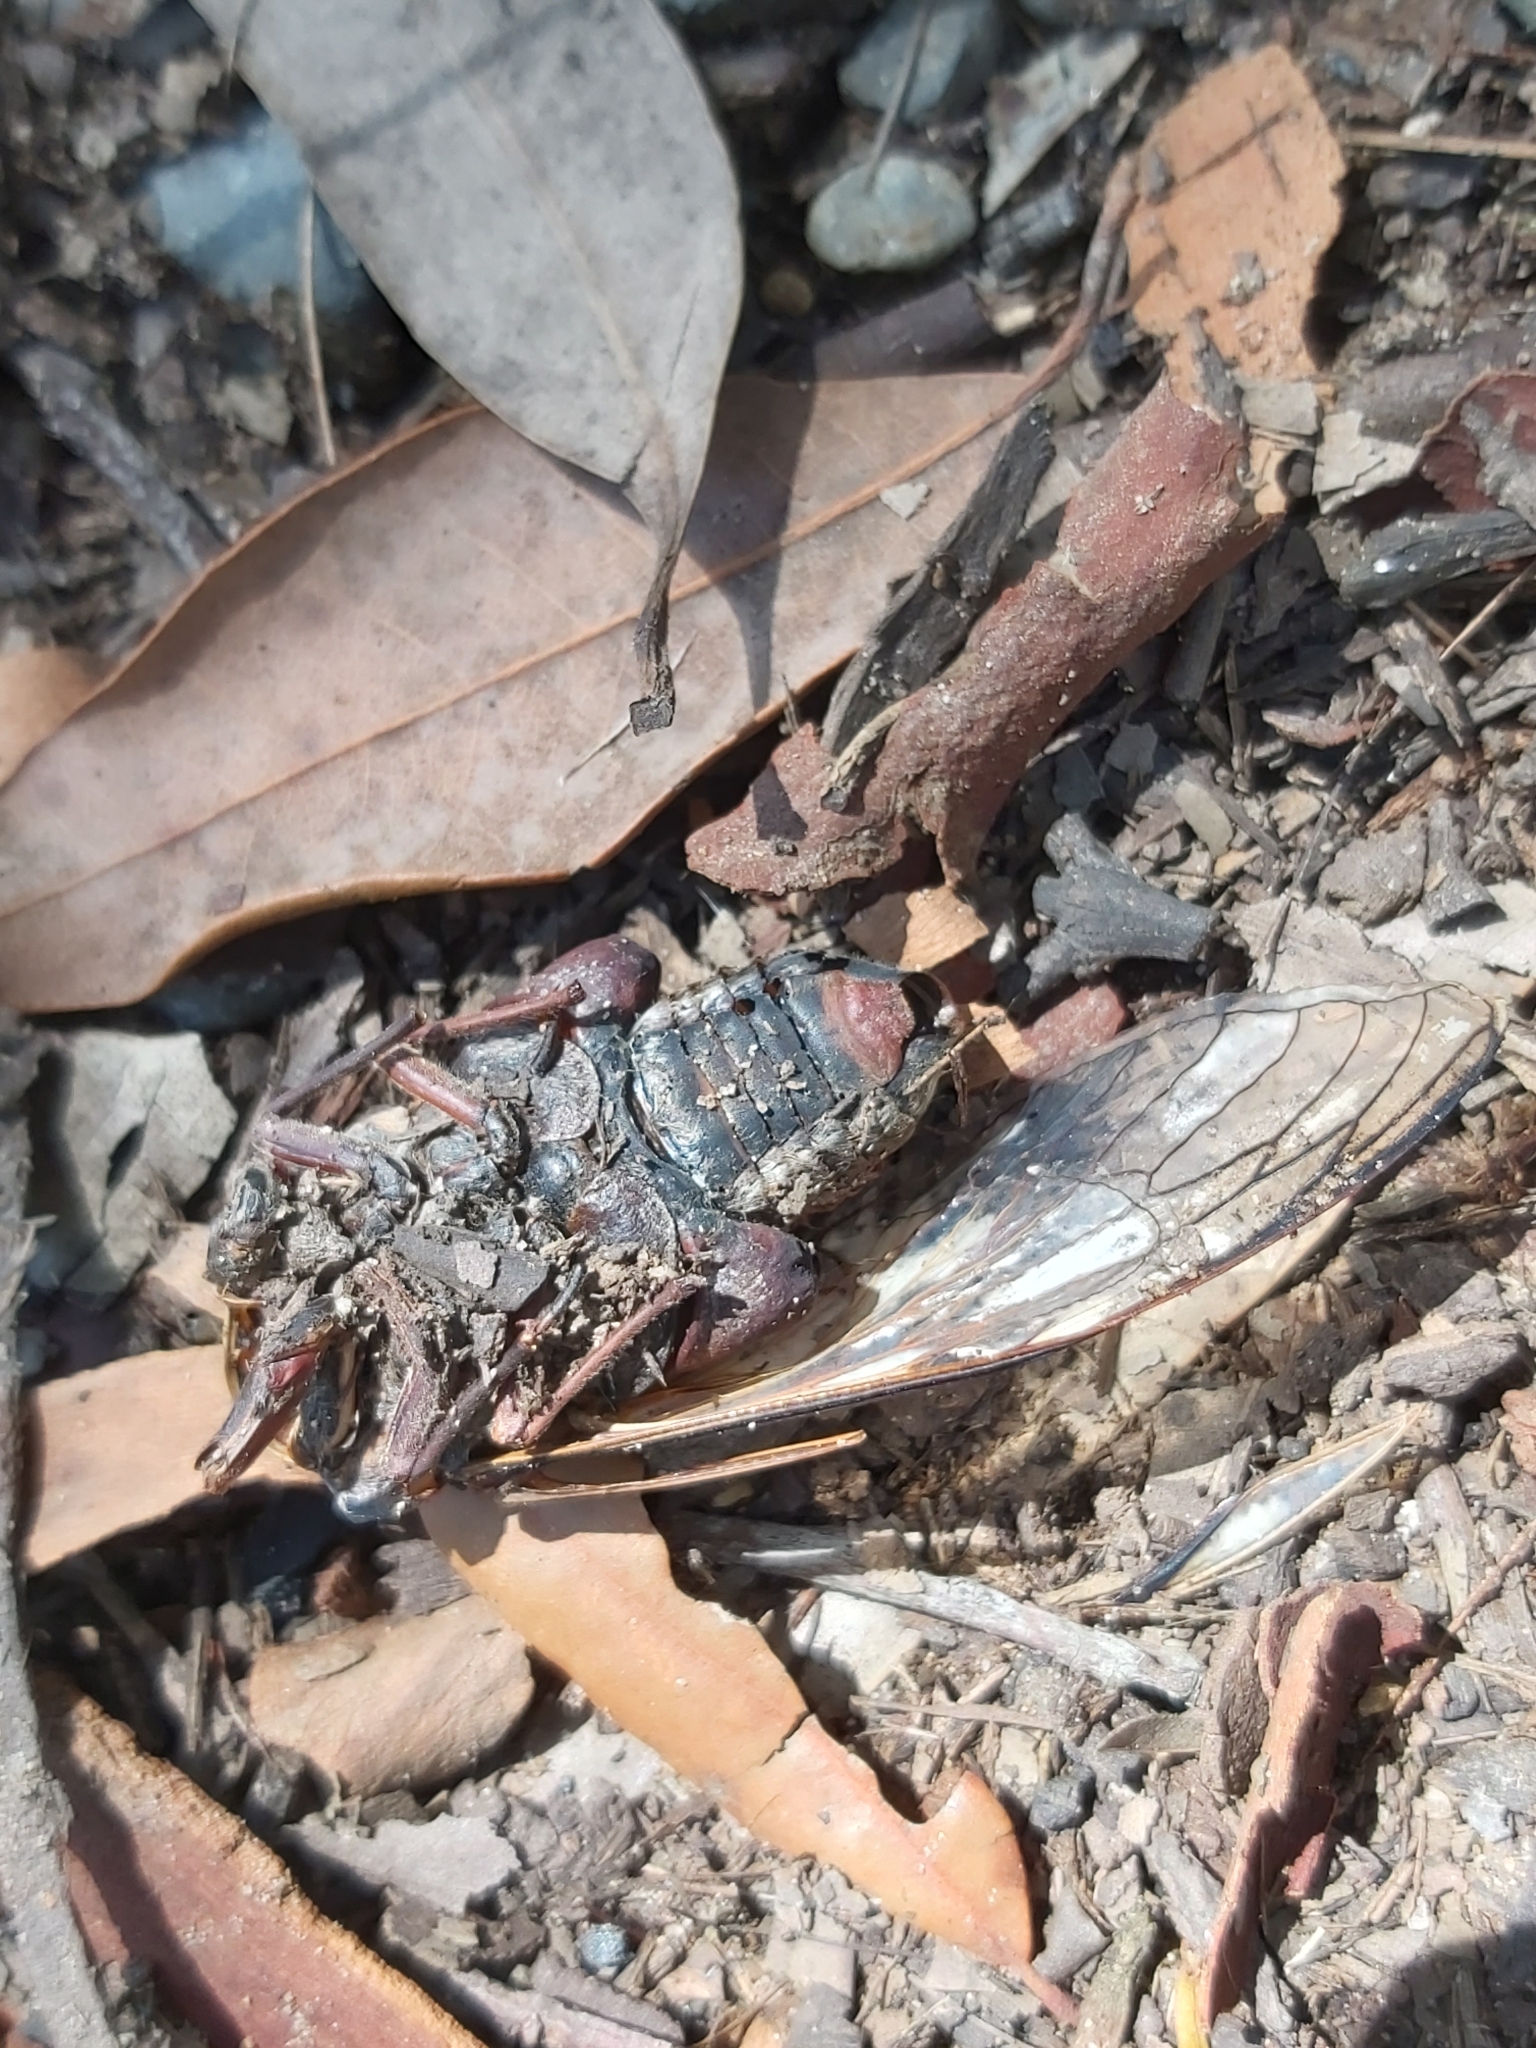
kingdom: Animalia
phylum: Arthropoda
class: Insecta
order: Hemiptera
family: Cicadidae
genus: Thopha
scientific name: Thopha saccata
